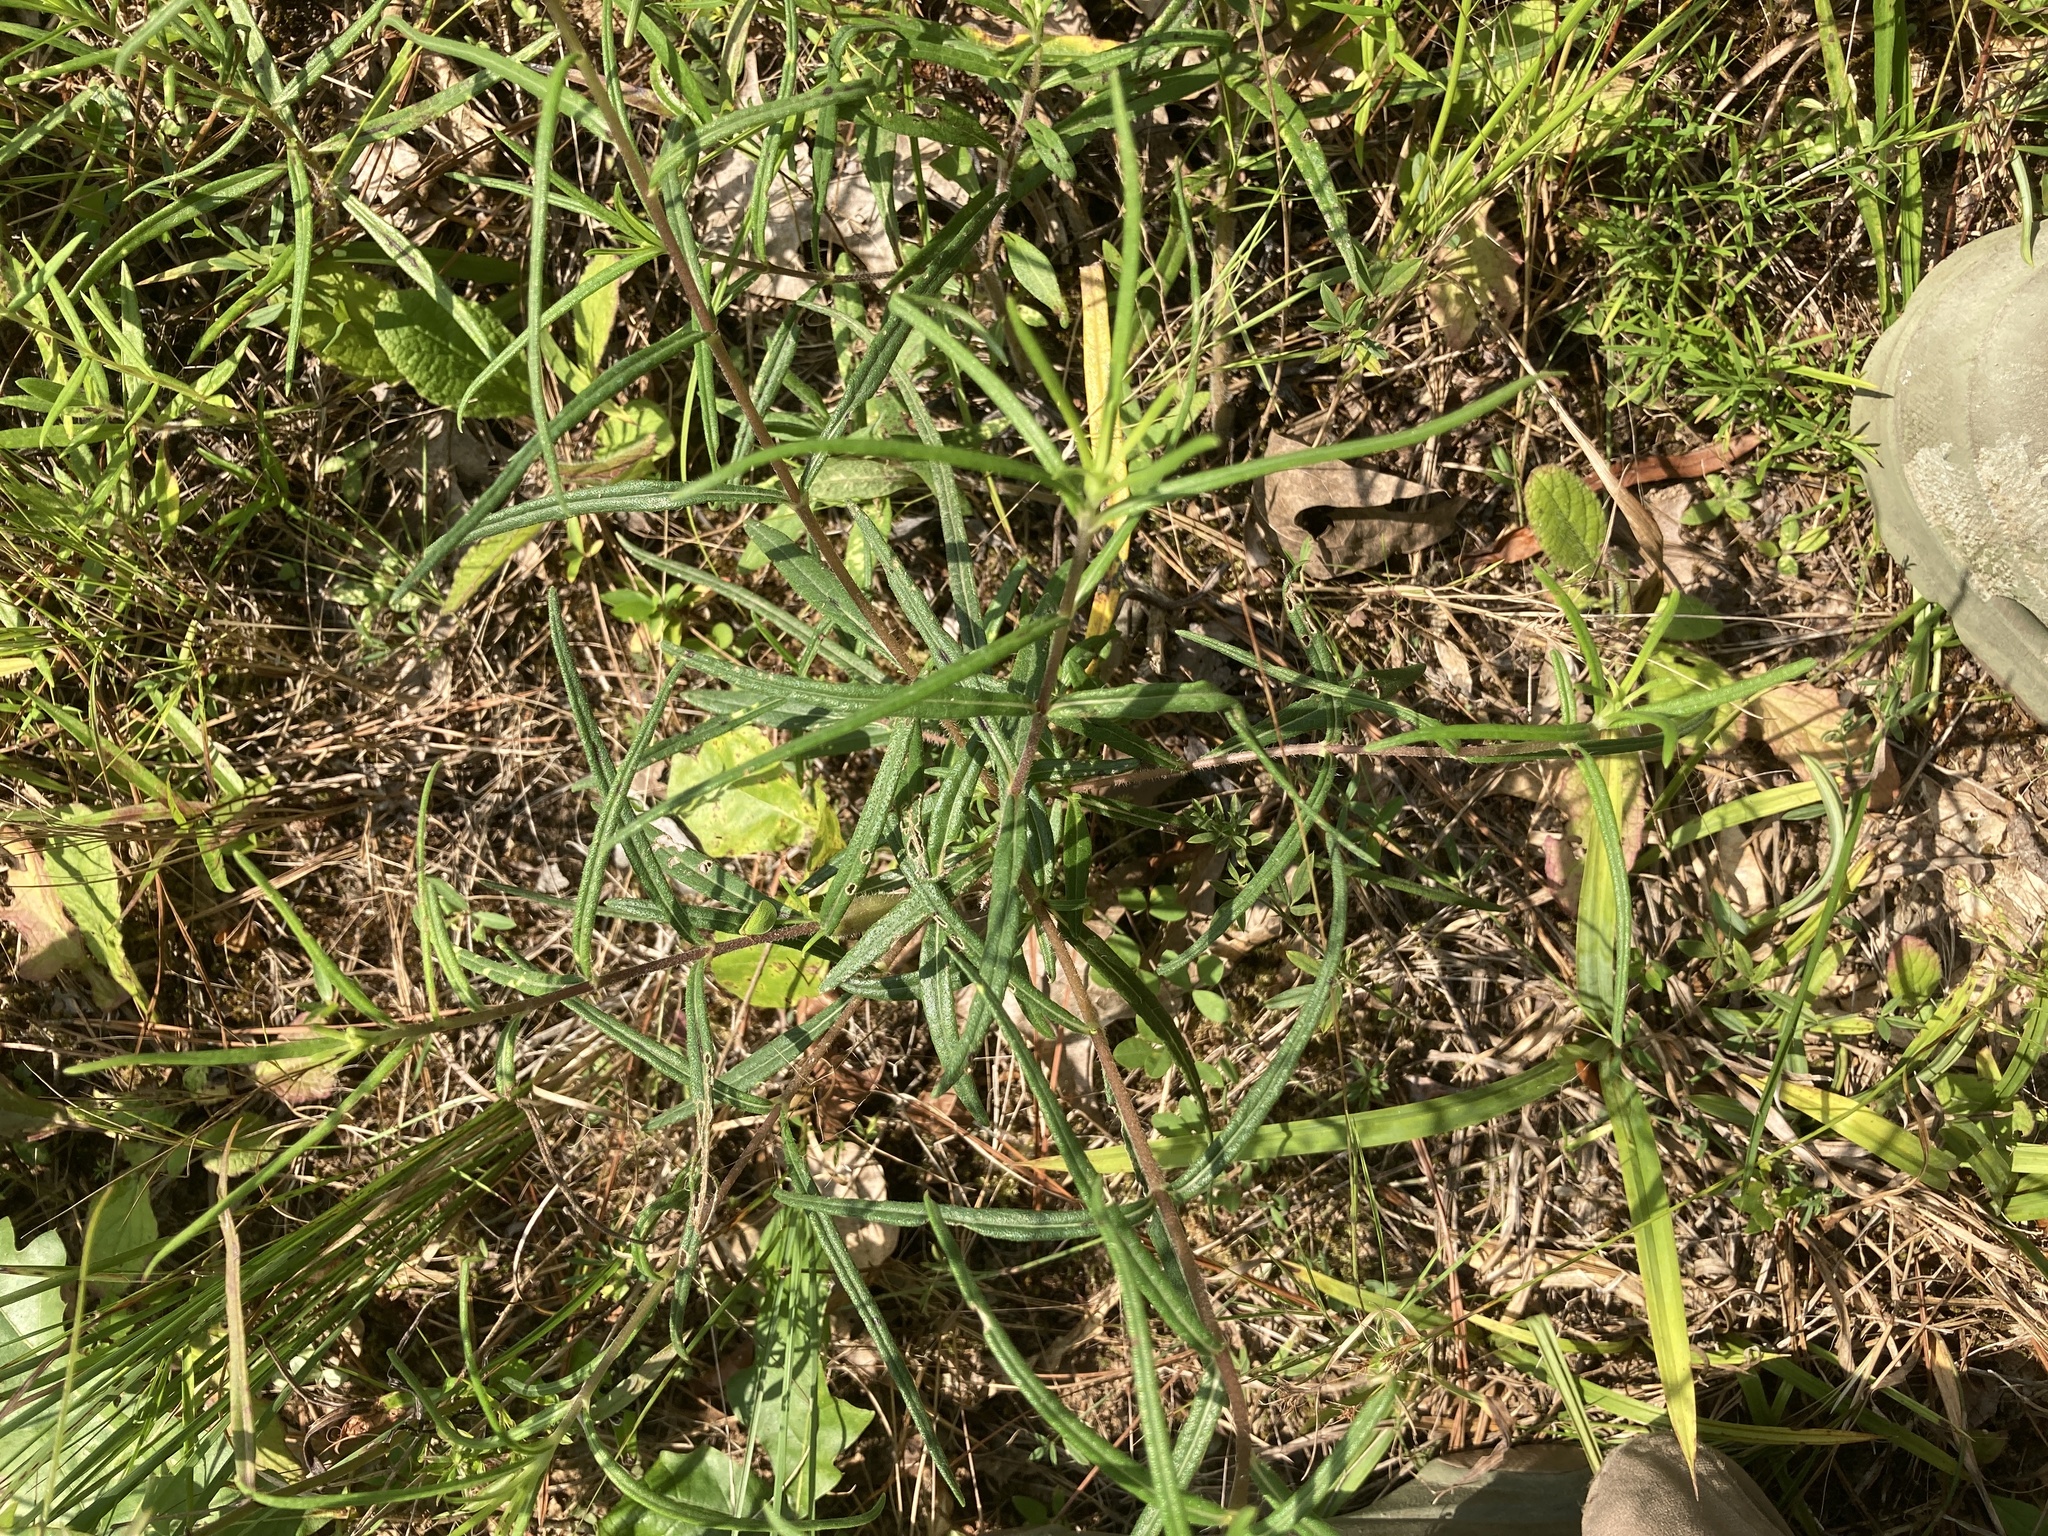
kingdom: Plantae
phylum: Tracheophyta
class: Magnoliopsida
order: Asterales
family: Asteraceae
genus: Helianthus
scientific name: Helianthus angustifolius
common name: Swamp sunflower
